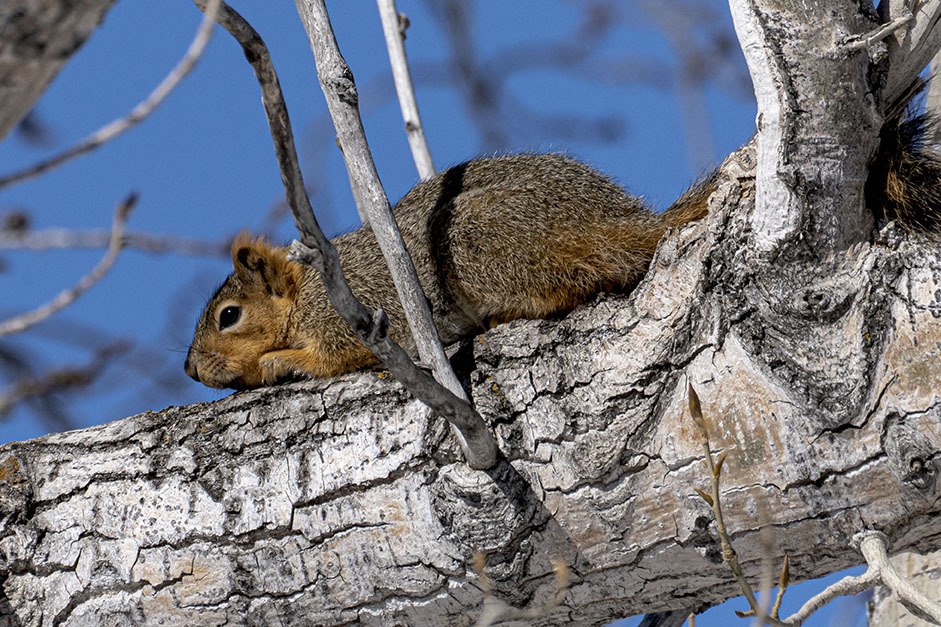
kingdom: Animalia
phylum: Chordata
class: Mammalia
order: Rodentia
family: Sciuridae
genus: Sciurus
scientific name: Sciurus niger
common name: Fox squirrel
